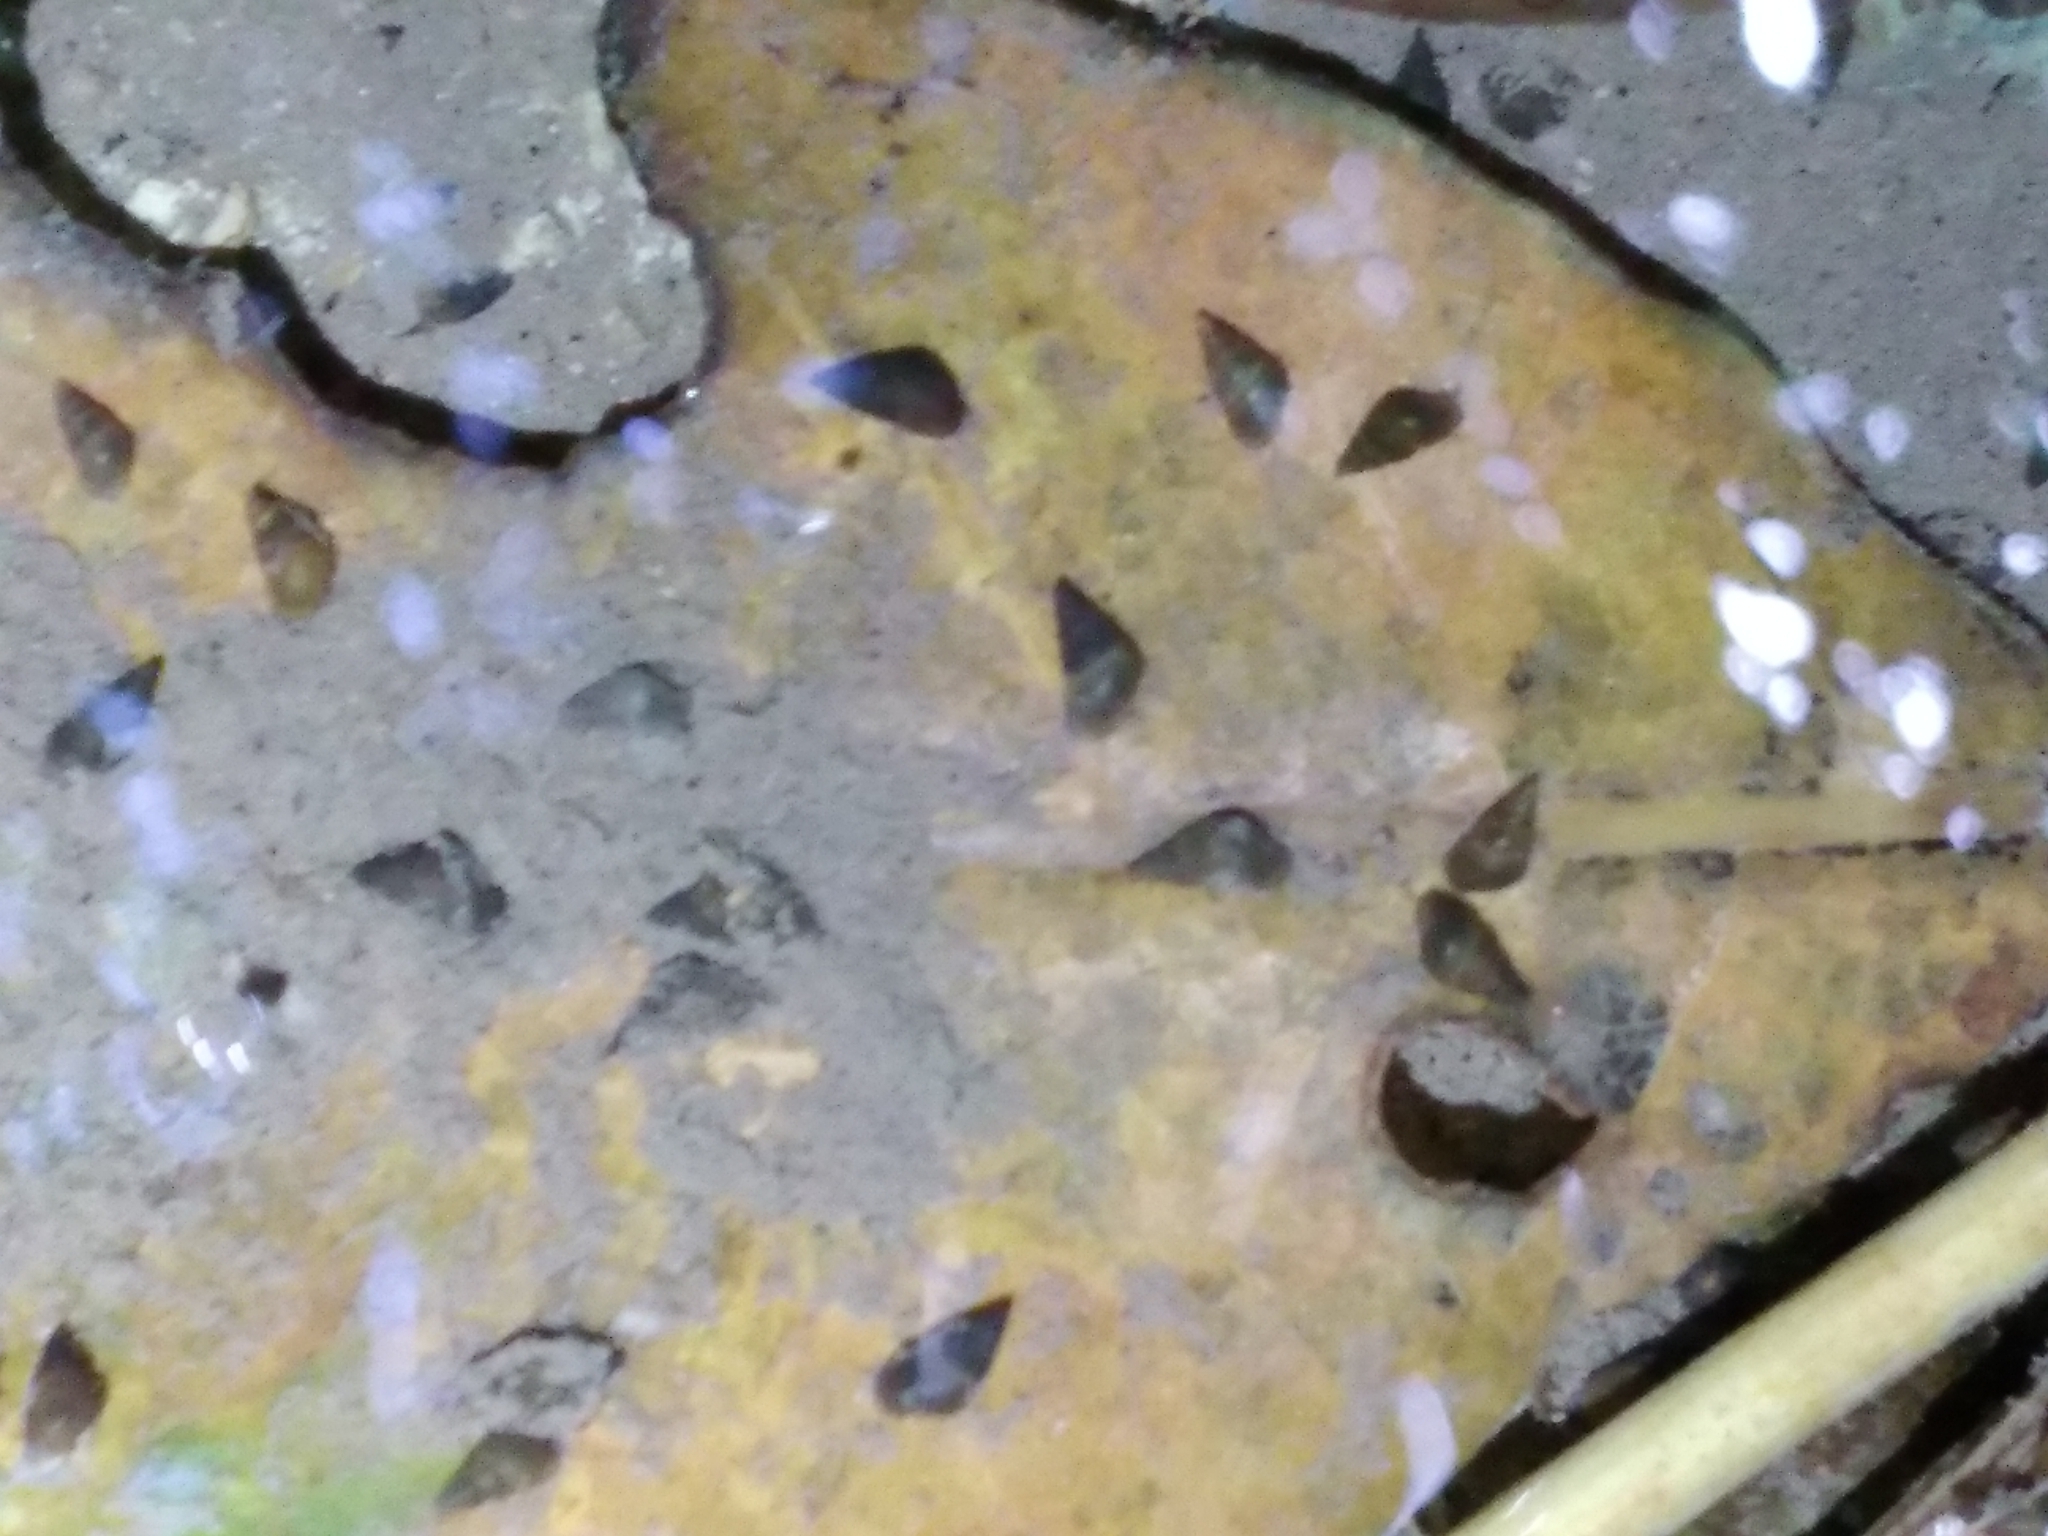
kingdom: Animalia
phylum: Mollusca
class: Gastropoda
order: Littorinimorpha
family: Tateidae
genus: Potamopyrgus
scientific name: Potamopyrgus antipodarum
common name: Jenkins' spire snail
